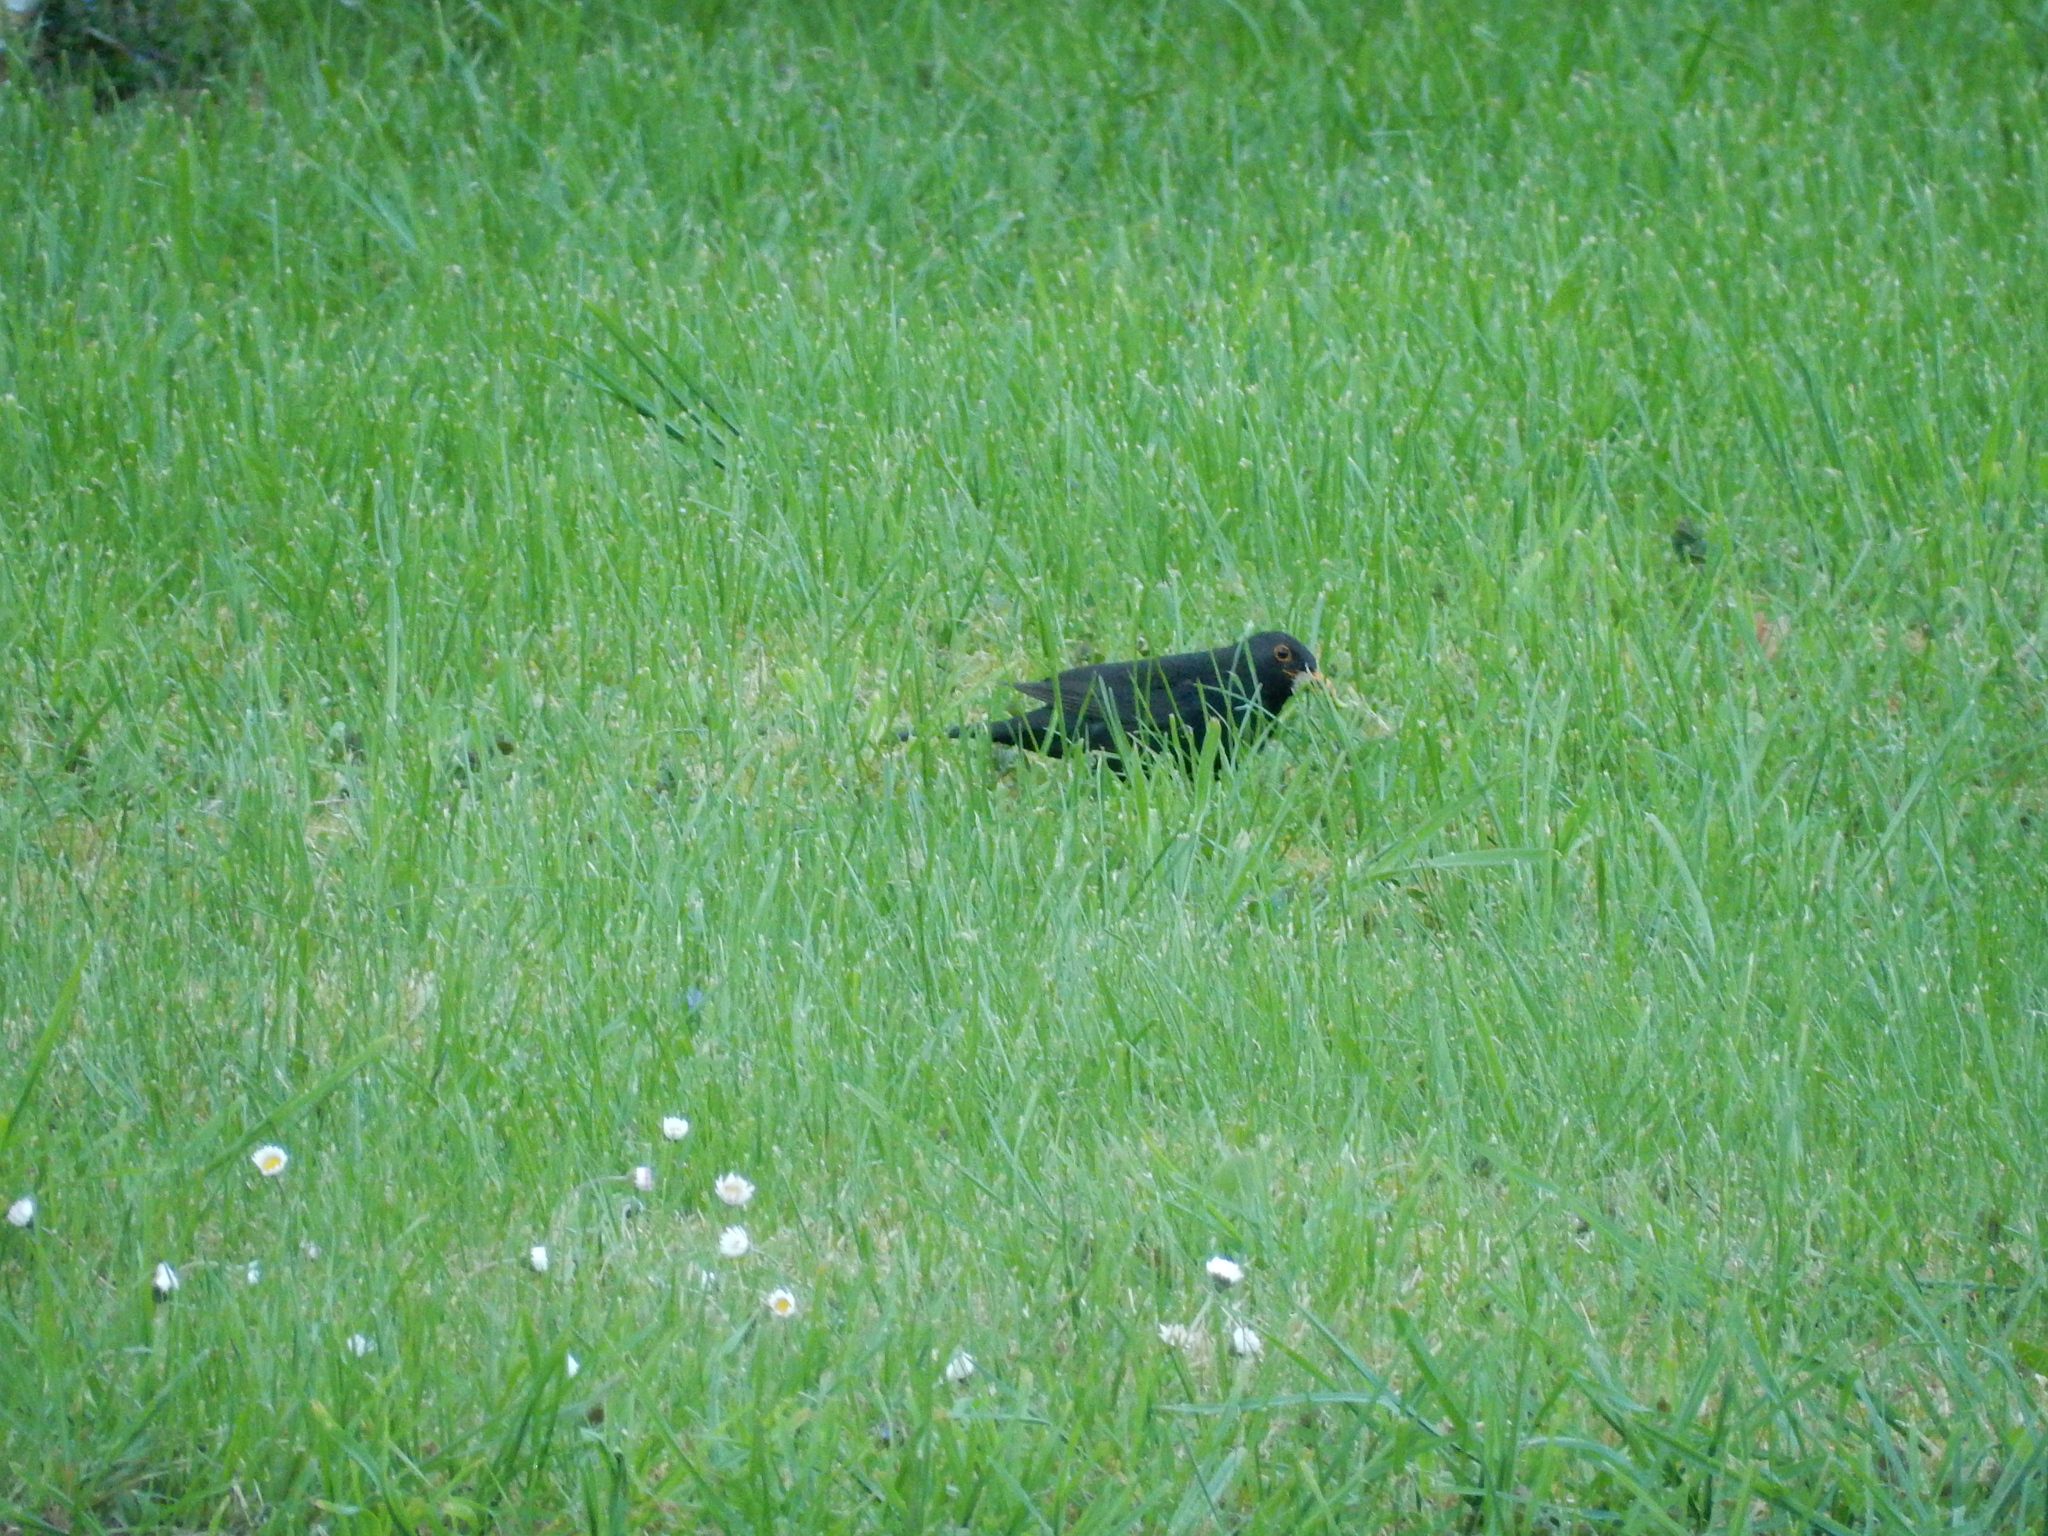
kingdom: Animalia
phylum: Chordata
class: Aves
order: Passeriformes
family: Turdidae
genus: Turdus
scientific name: Turdus merula
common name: Common blackbird
